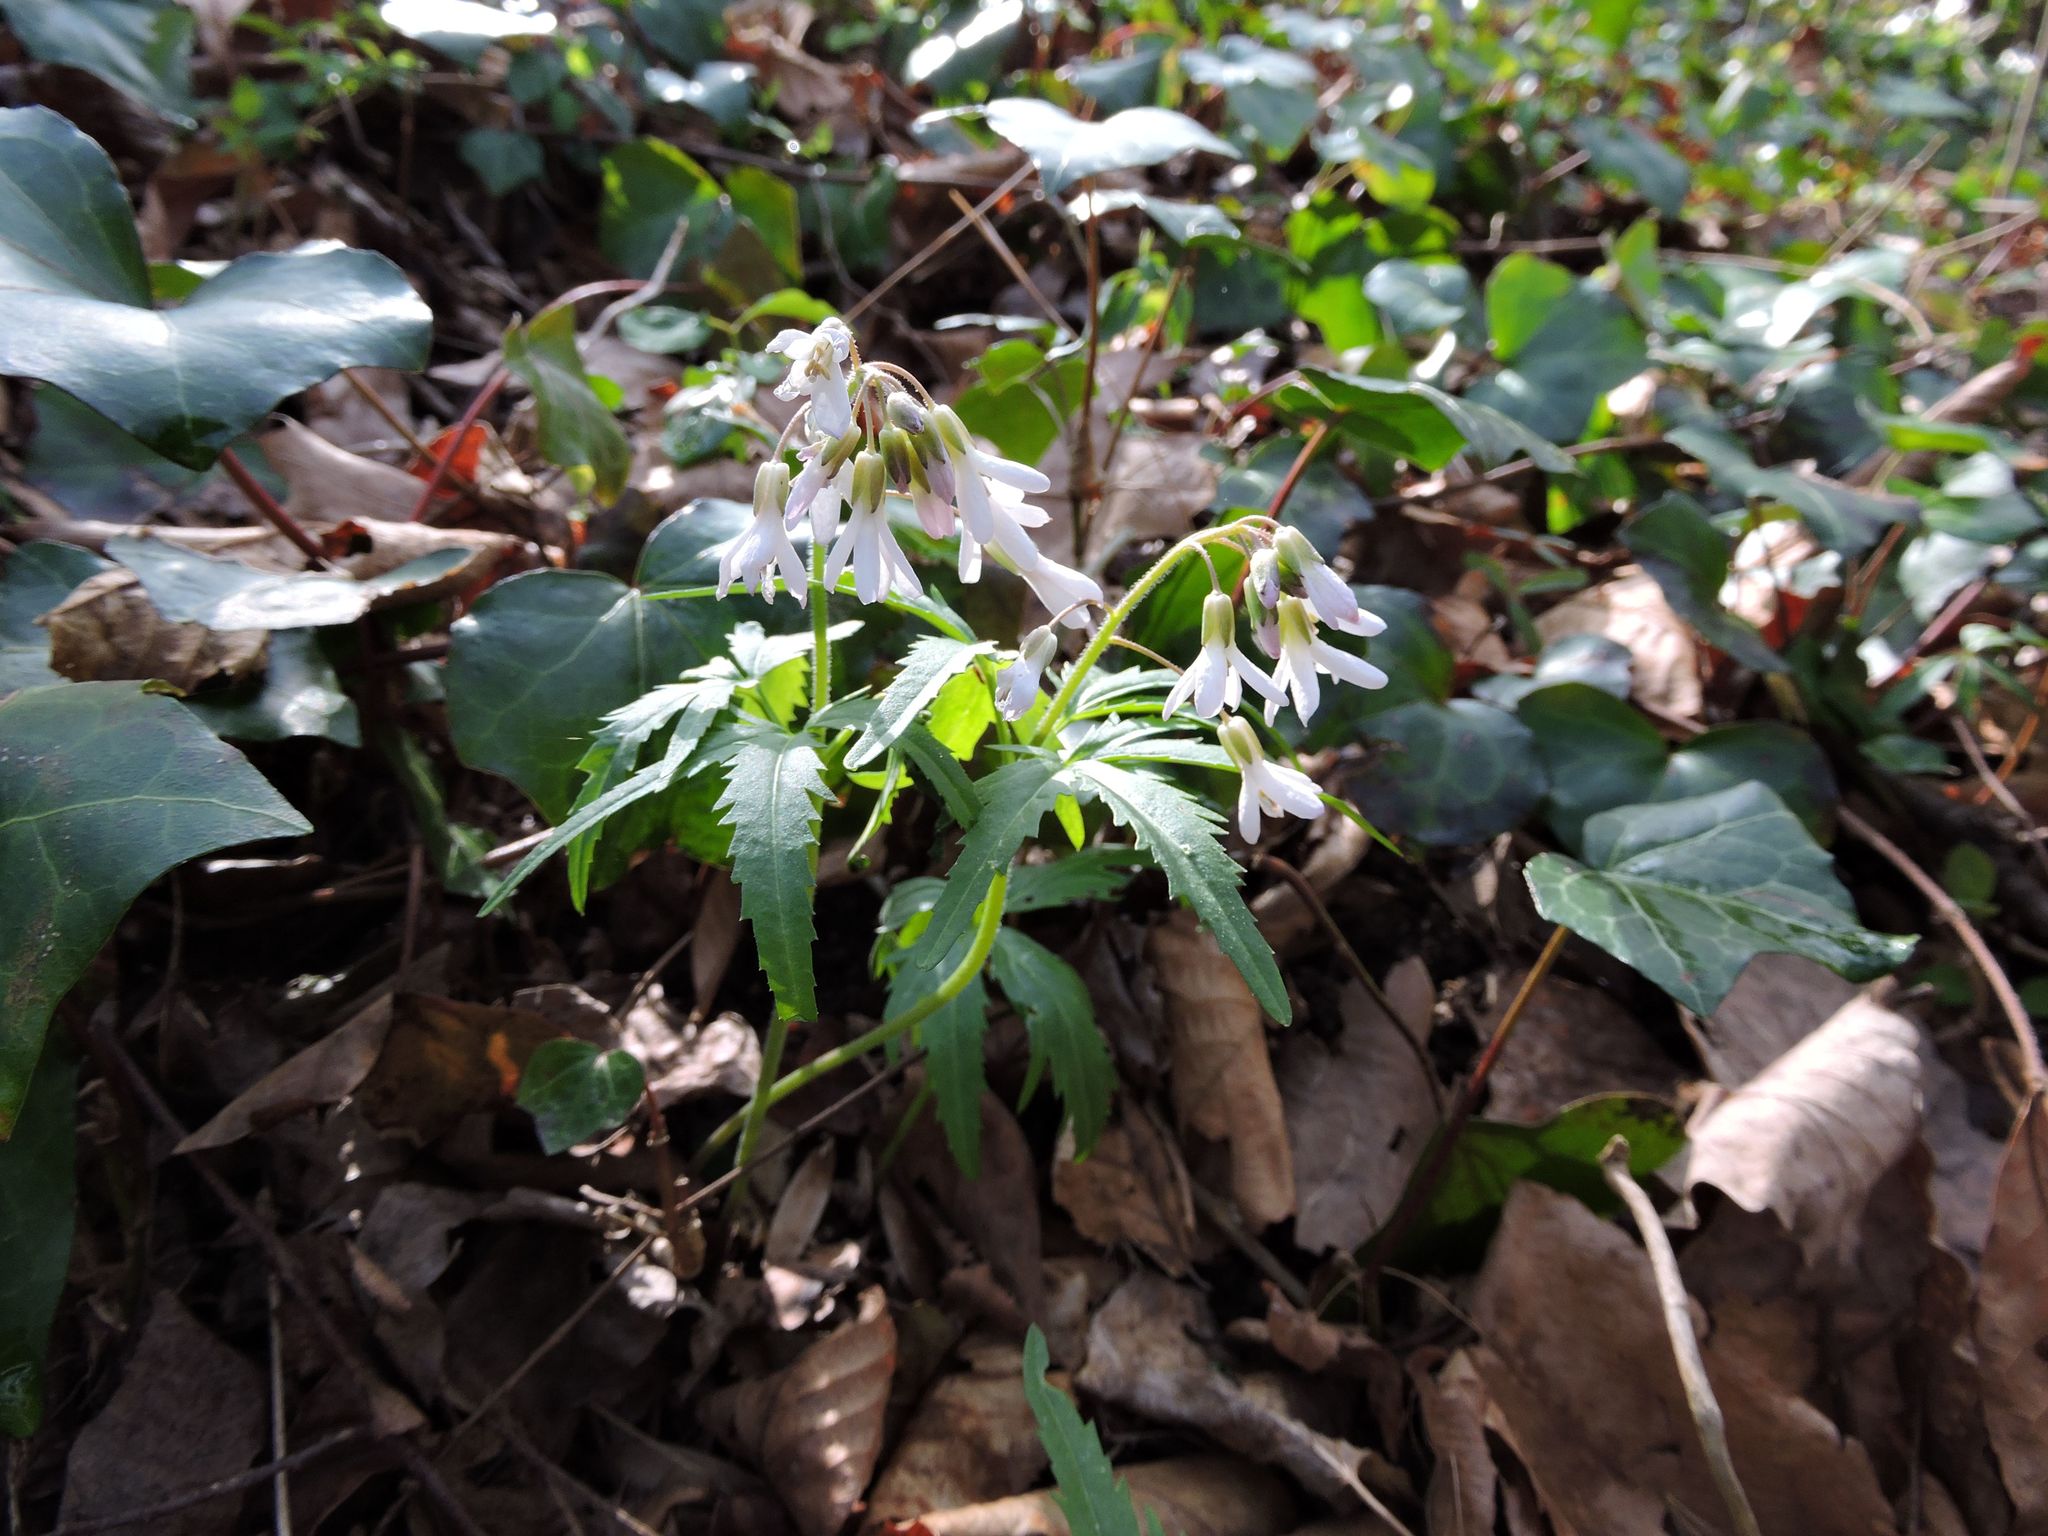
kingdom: Plantae
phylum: Tracheophyta
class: Magnoliopsida
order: Brassicales
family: Brassicaceae
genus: Cardamine
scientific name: Cardamine concatenata
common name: Cut-leaf toothcup
